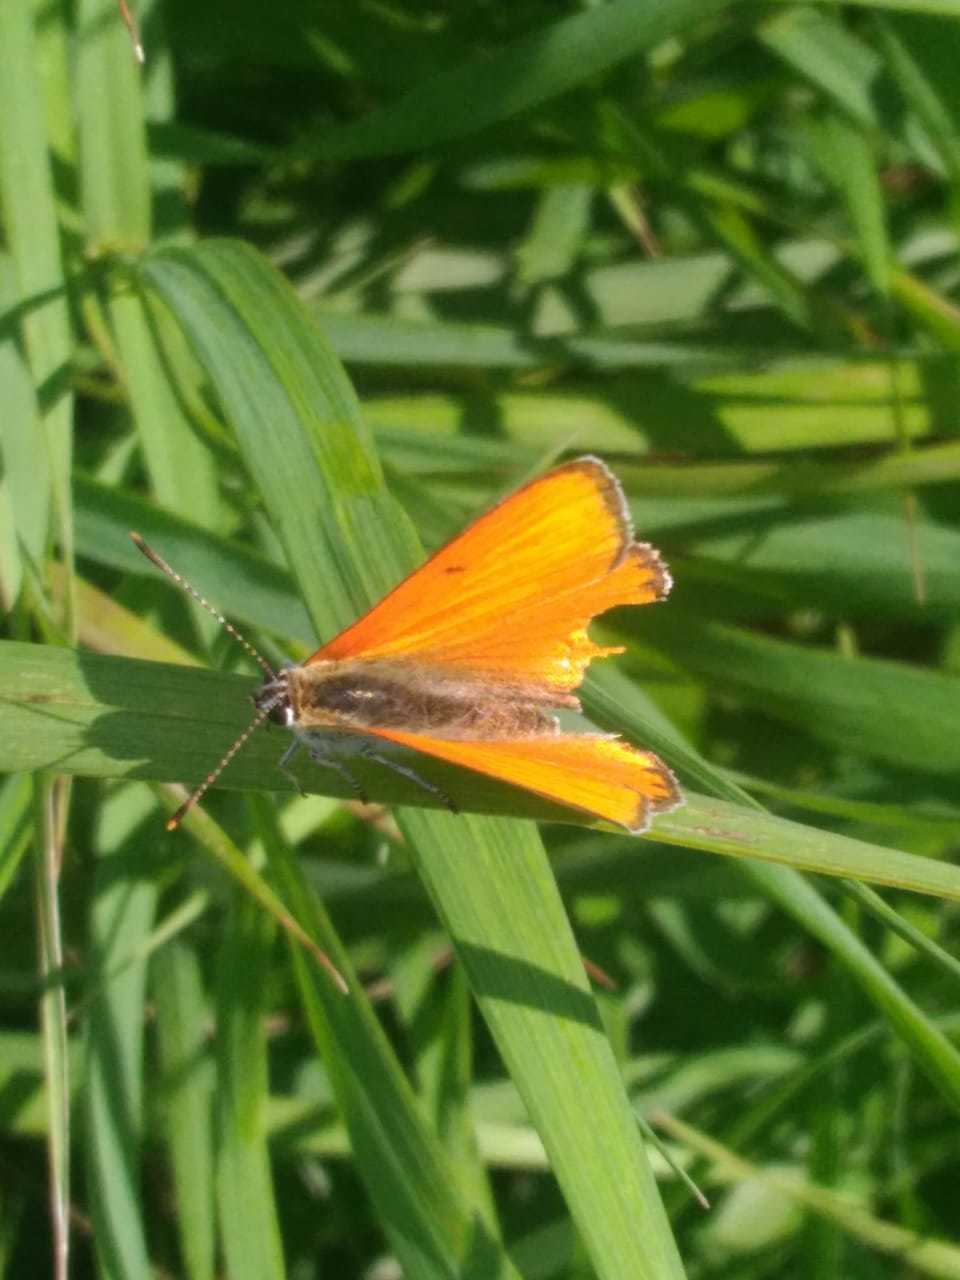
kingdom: Animalia
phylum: Arthropoda
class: Insecta
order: Lepidoptera
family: Lycaenidae
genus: Lycaena
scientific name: Lycaena dispar
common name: Large copper
